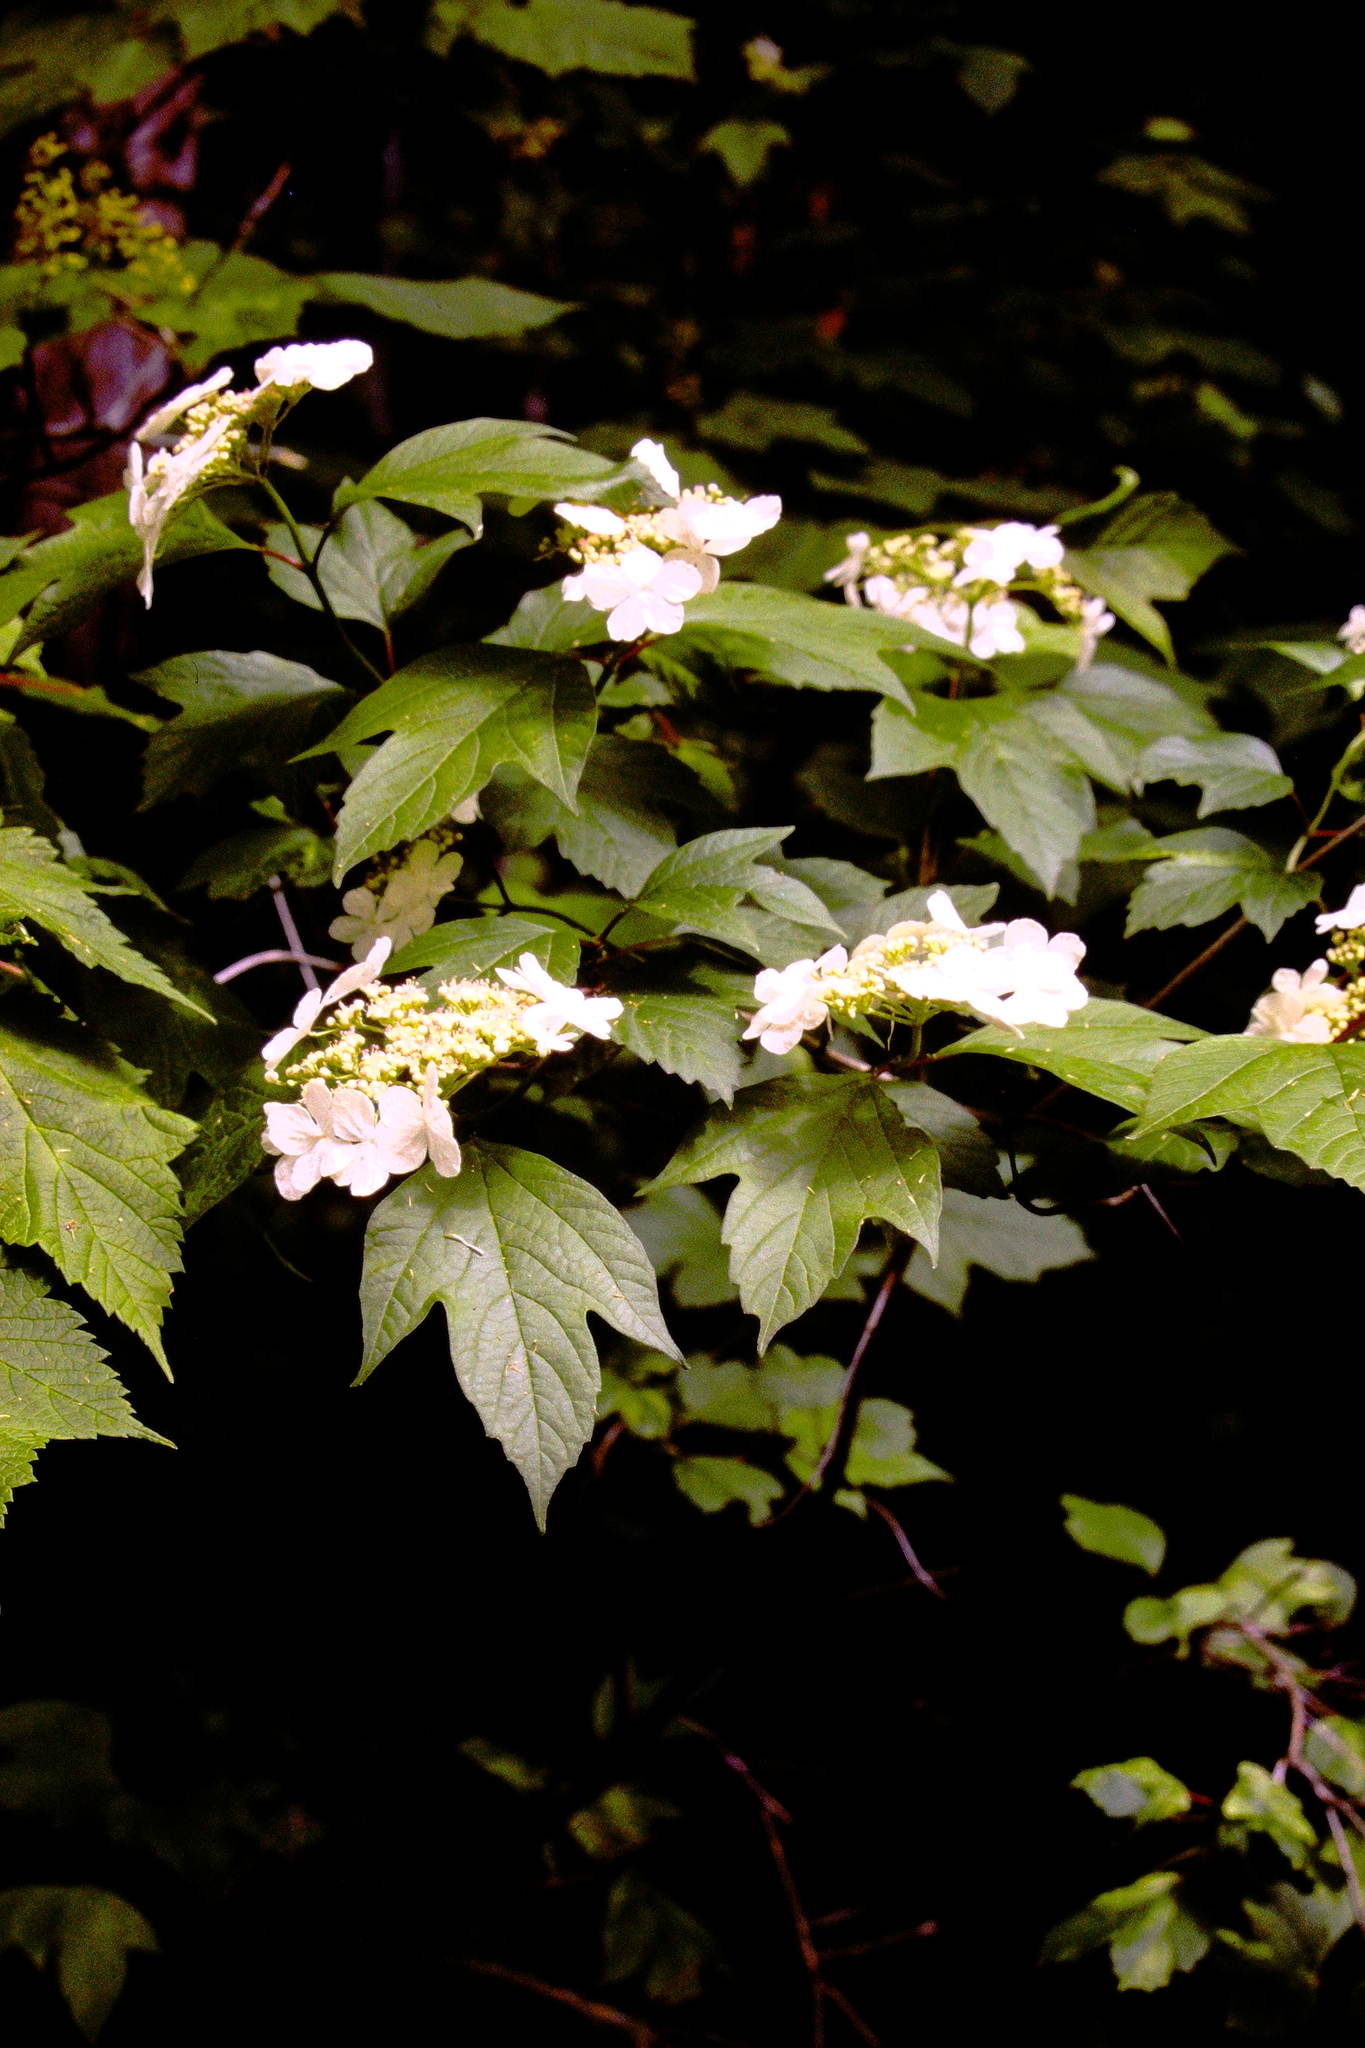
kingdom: Plantae
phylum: Tracheophyta
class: Magnoliopsida
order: Dipsacales
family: Viburnaceae
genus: Viburnum
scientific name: Viburnum trilobum
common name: American cranberrybush
